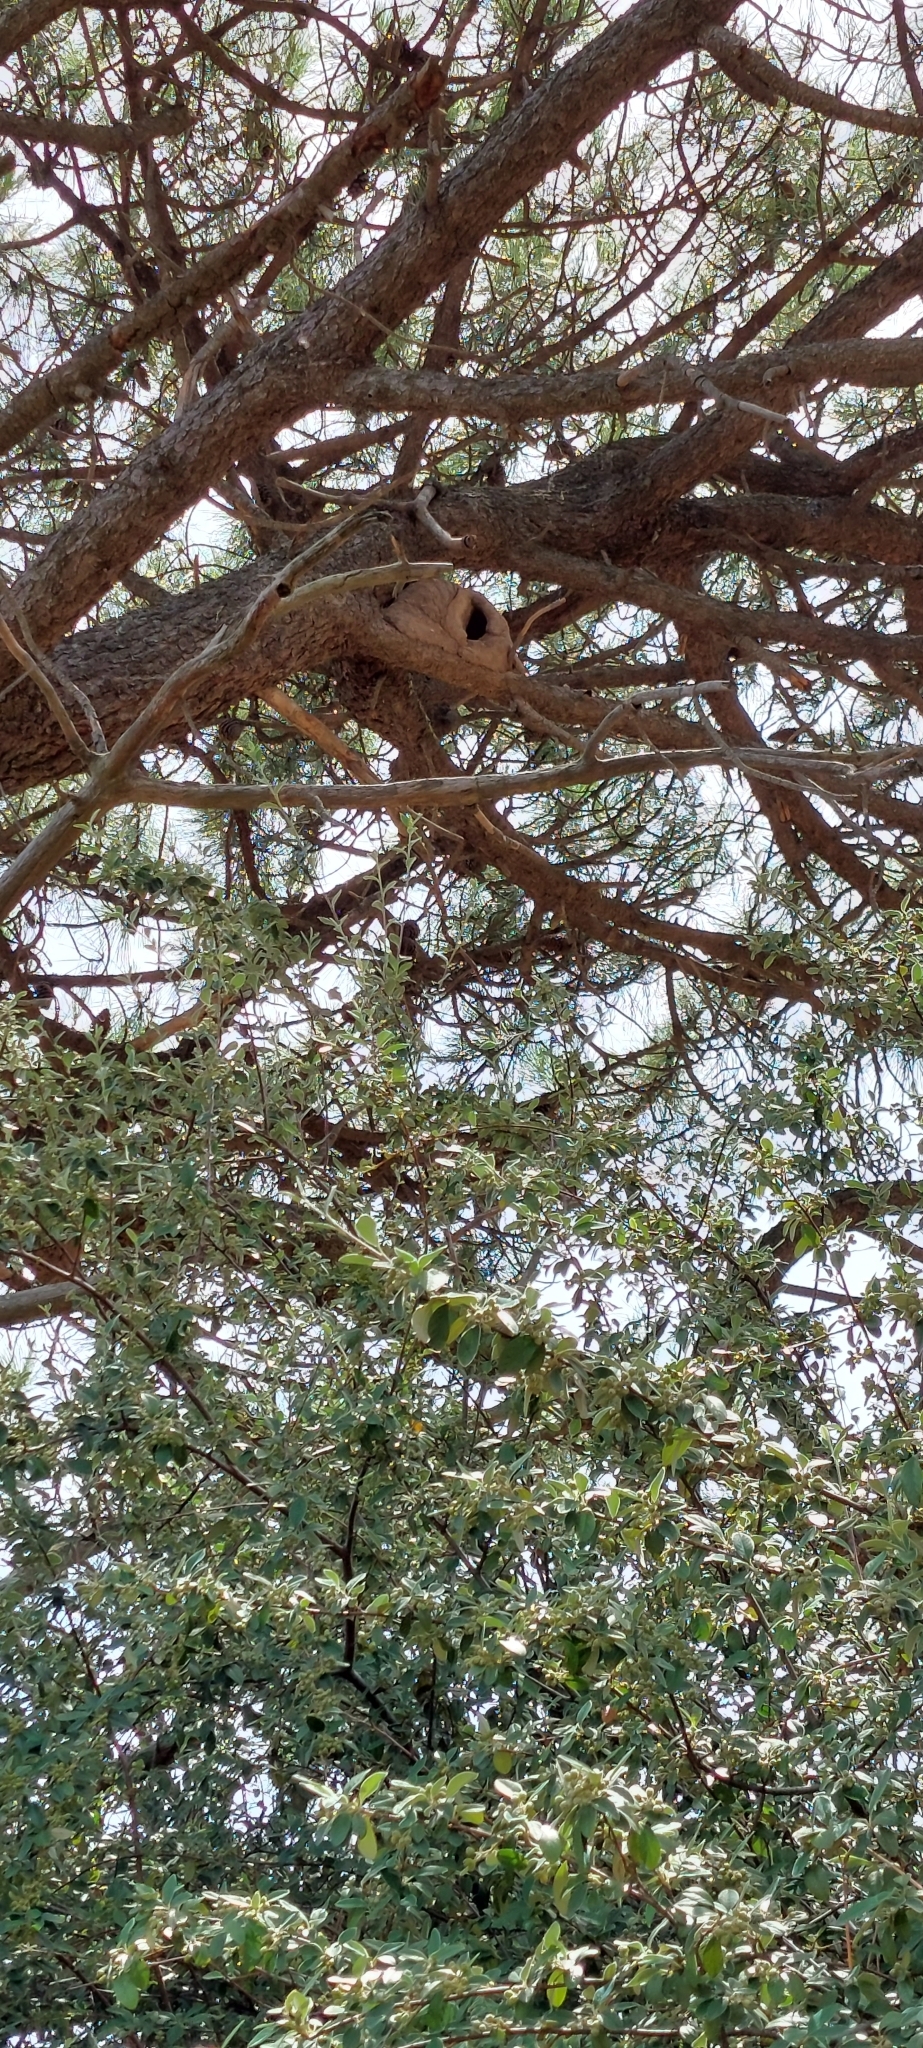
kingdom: Animalia
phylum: Chordata
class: Aves
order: Passeriformes
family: Furnariidae
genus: Furnarius
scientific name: Furnarius rufus
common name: Rufous hornero
